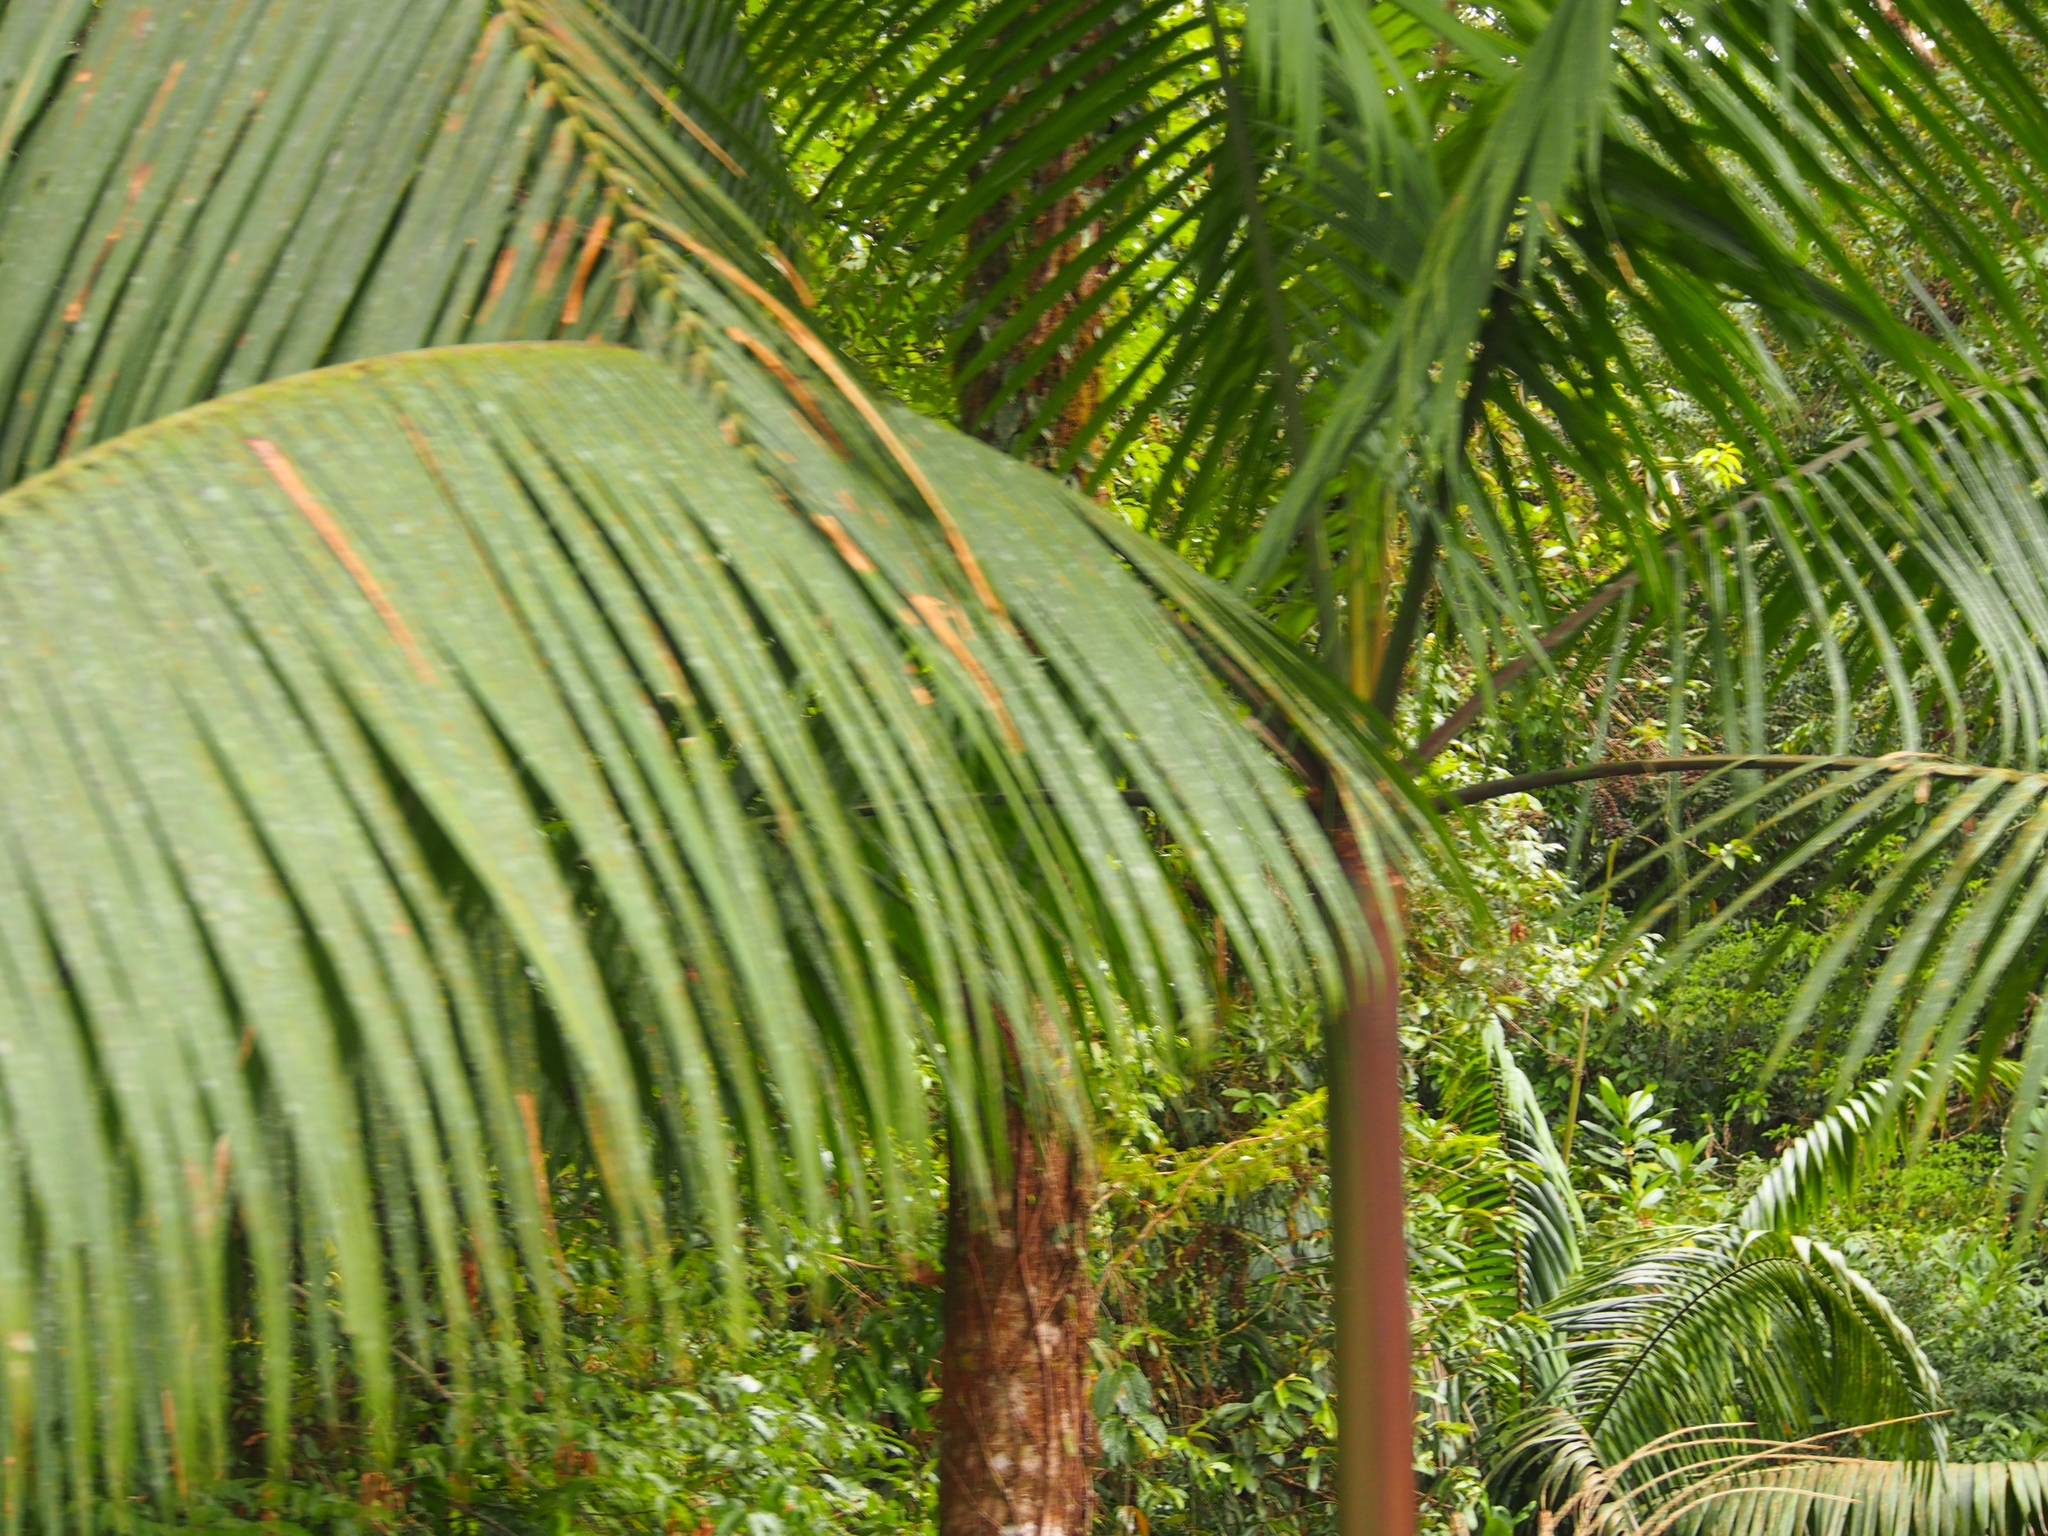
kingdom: Plantae
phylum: Tracheophyta
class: Liliopsida
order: Arecales
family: Arecaceae
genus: Euterpe
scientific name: Euterpe precatoria
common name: Mountain-cabbage
